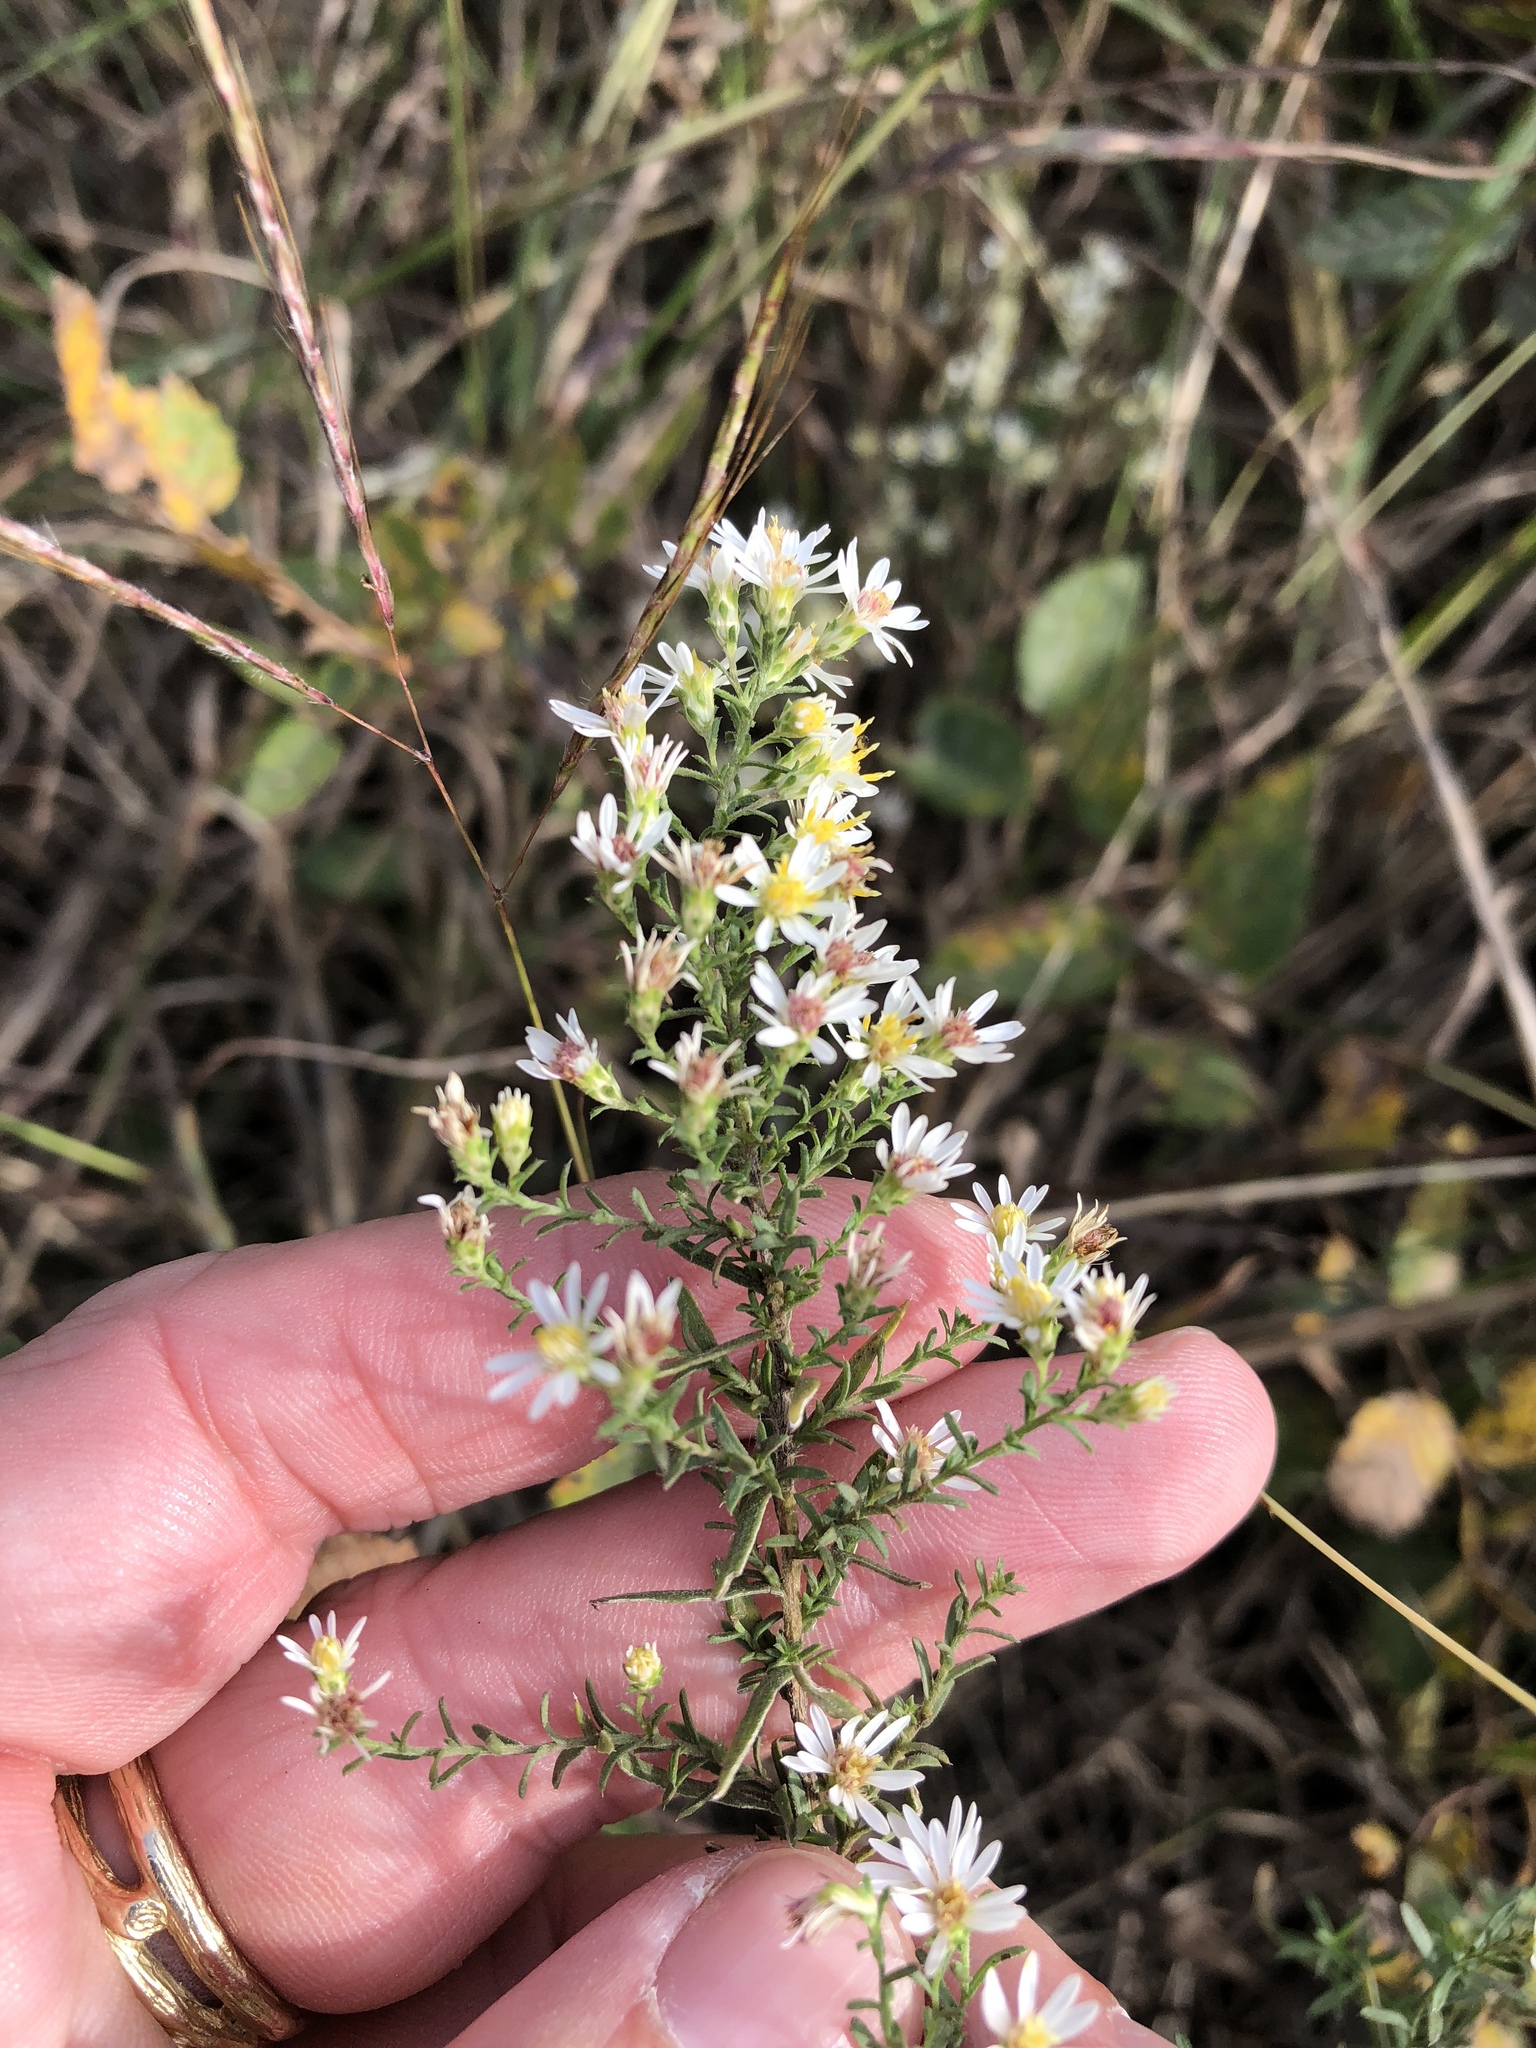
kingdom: Plantae
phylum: Tracheophyta
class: Magnoliopsida
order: Asterales
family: Asteraceae
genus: Symphyotrichum
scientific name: Symphyotrichum ericoides
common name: Heath aster
